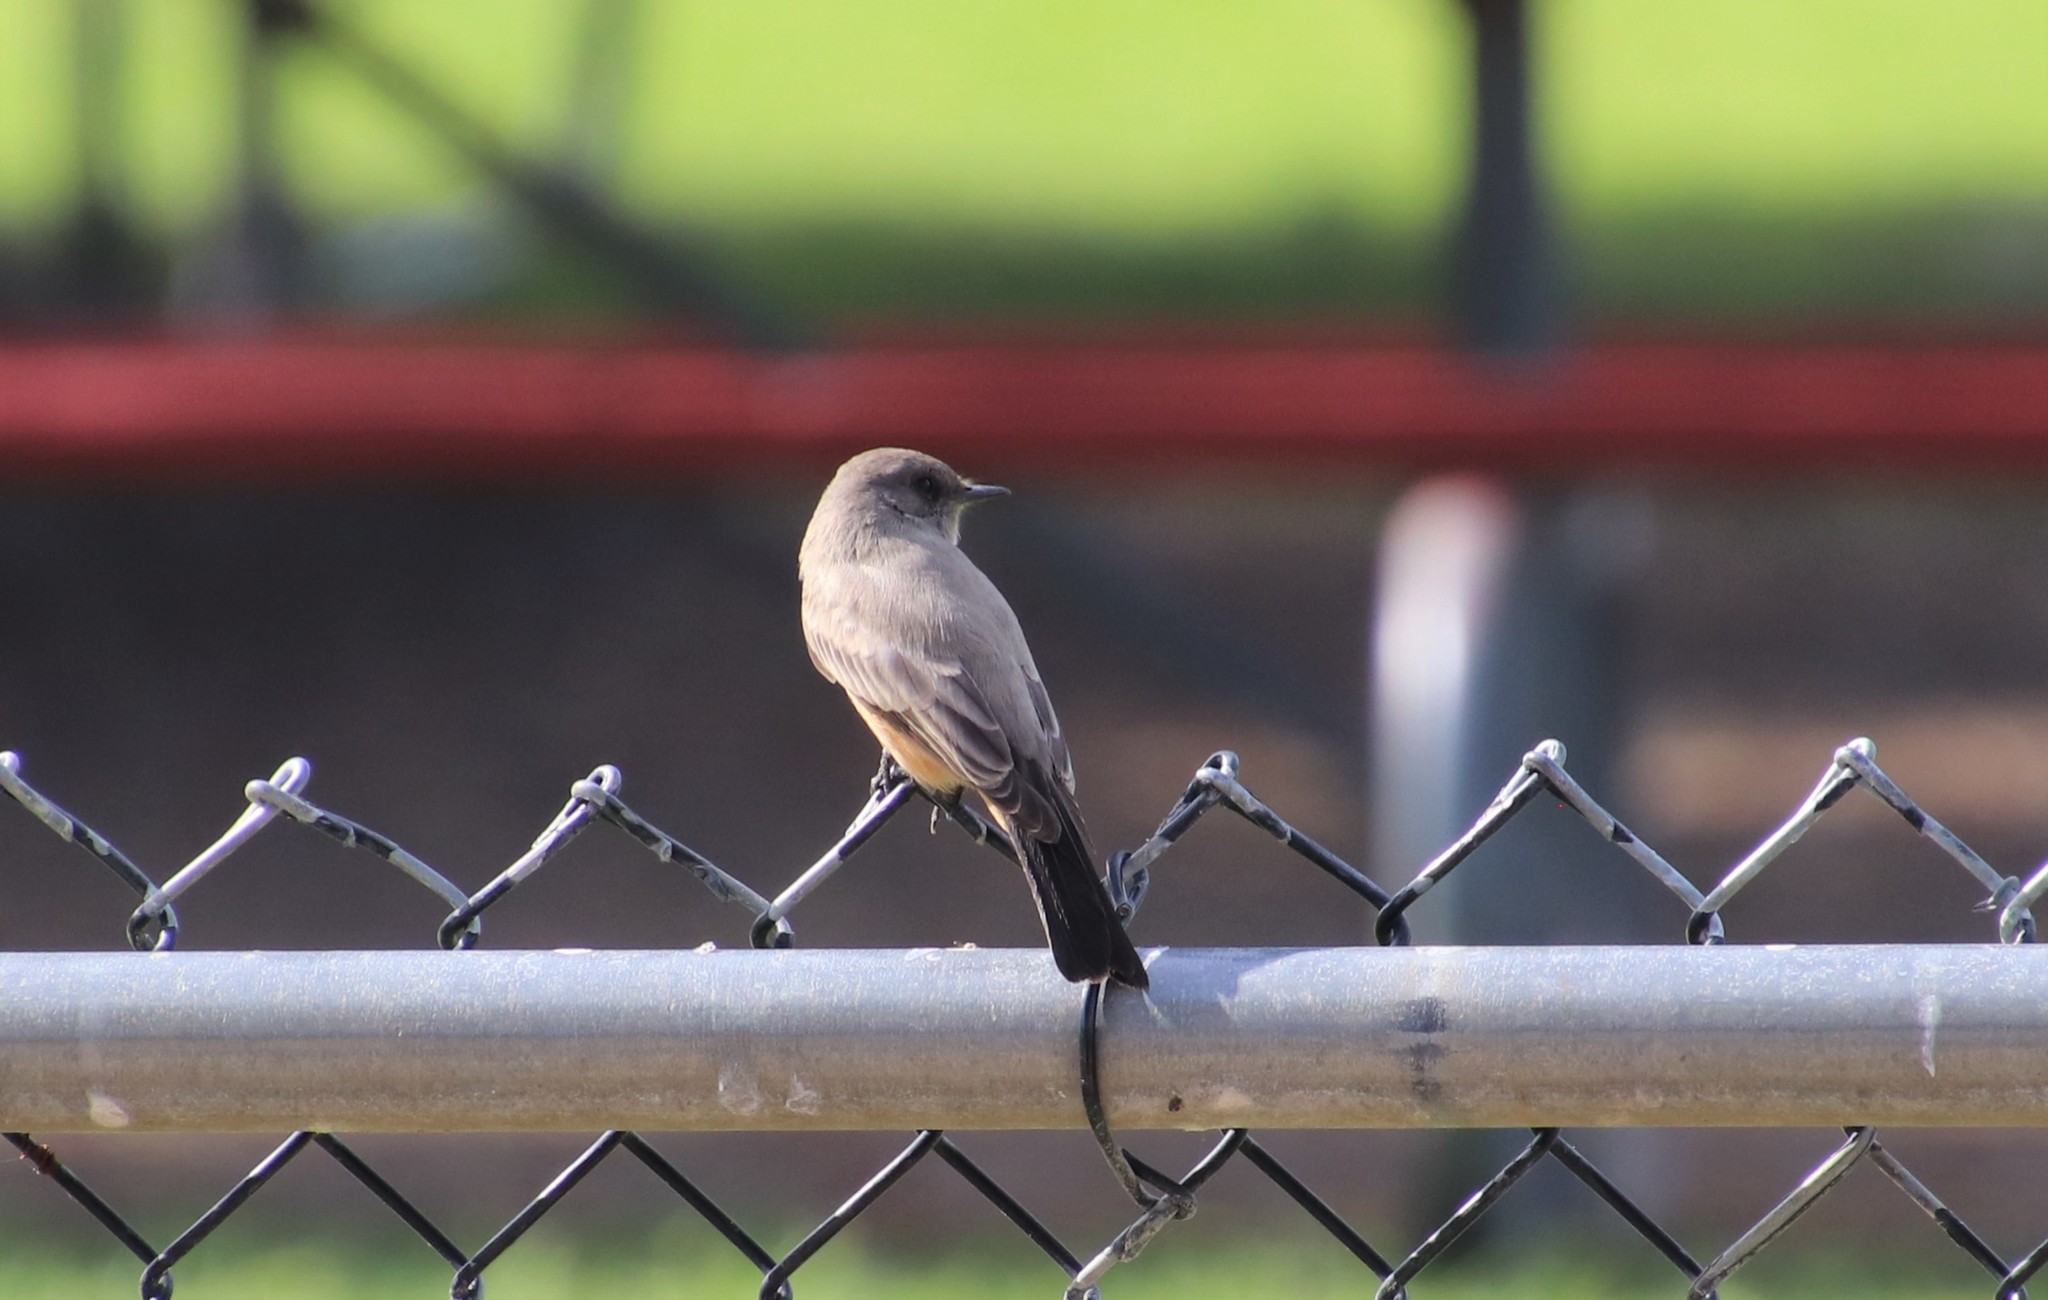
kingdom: Animalia
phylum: Chordata
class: Aves
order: Passeriformes
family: Tyrannidae
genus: Sayornis
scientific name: Sayornis saya
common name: Say's phoebe
